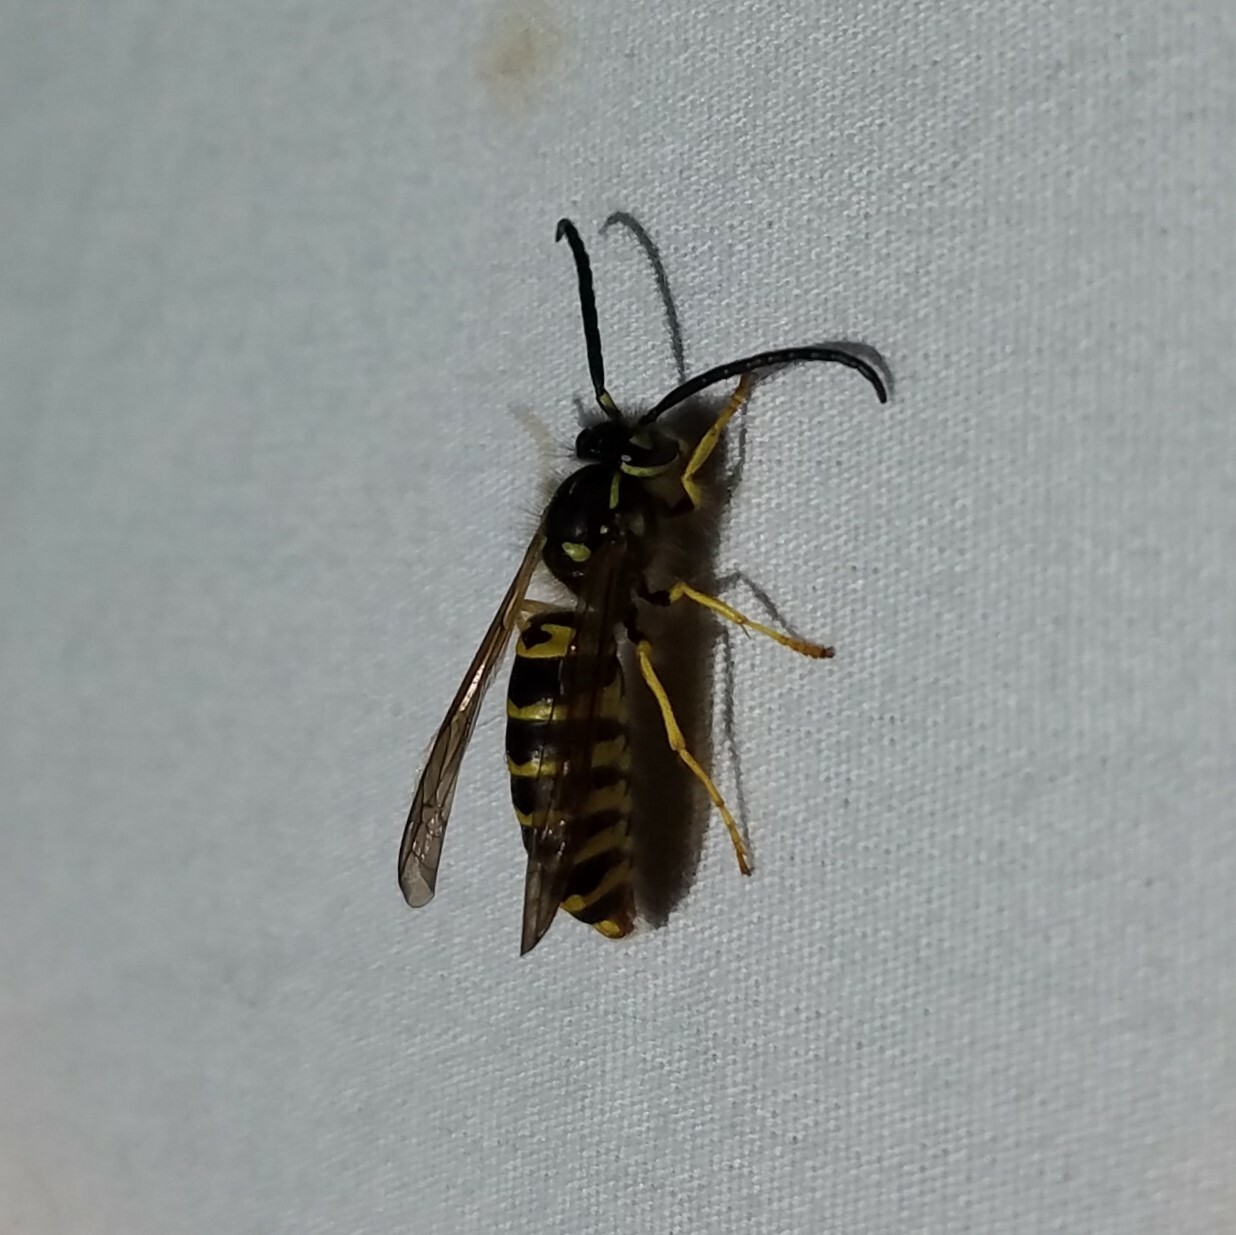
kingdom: Animalia
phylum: Arthropoda
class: Insecta
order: Hymenoptera
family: Vespidae
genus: Vespula
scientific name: Vespula maculifrons
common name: Eastern yellowjacket
